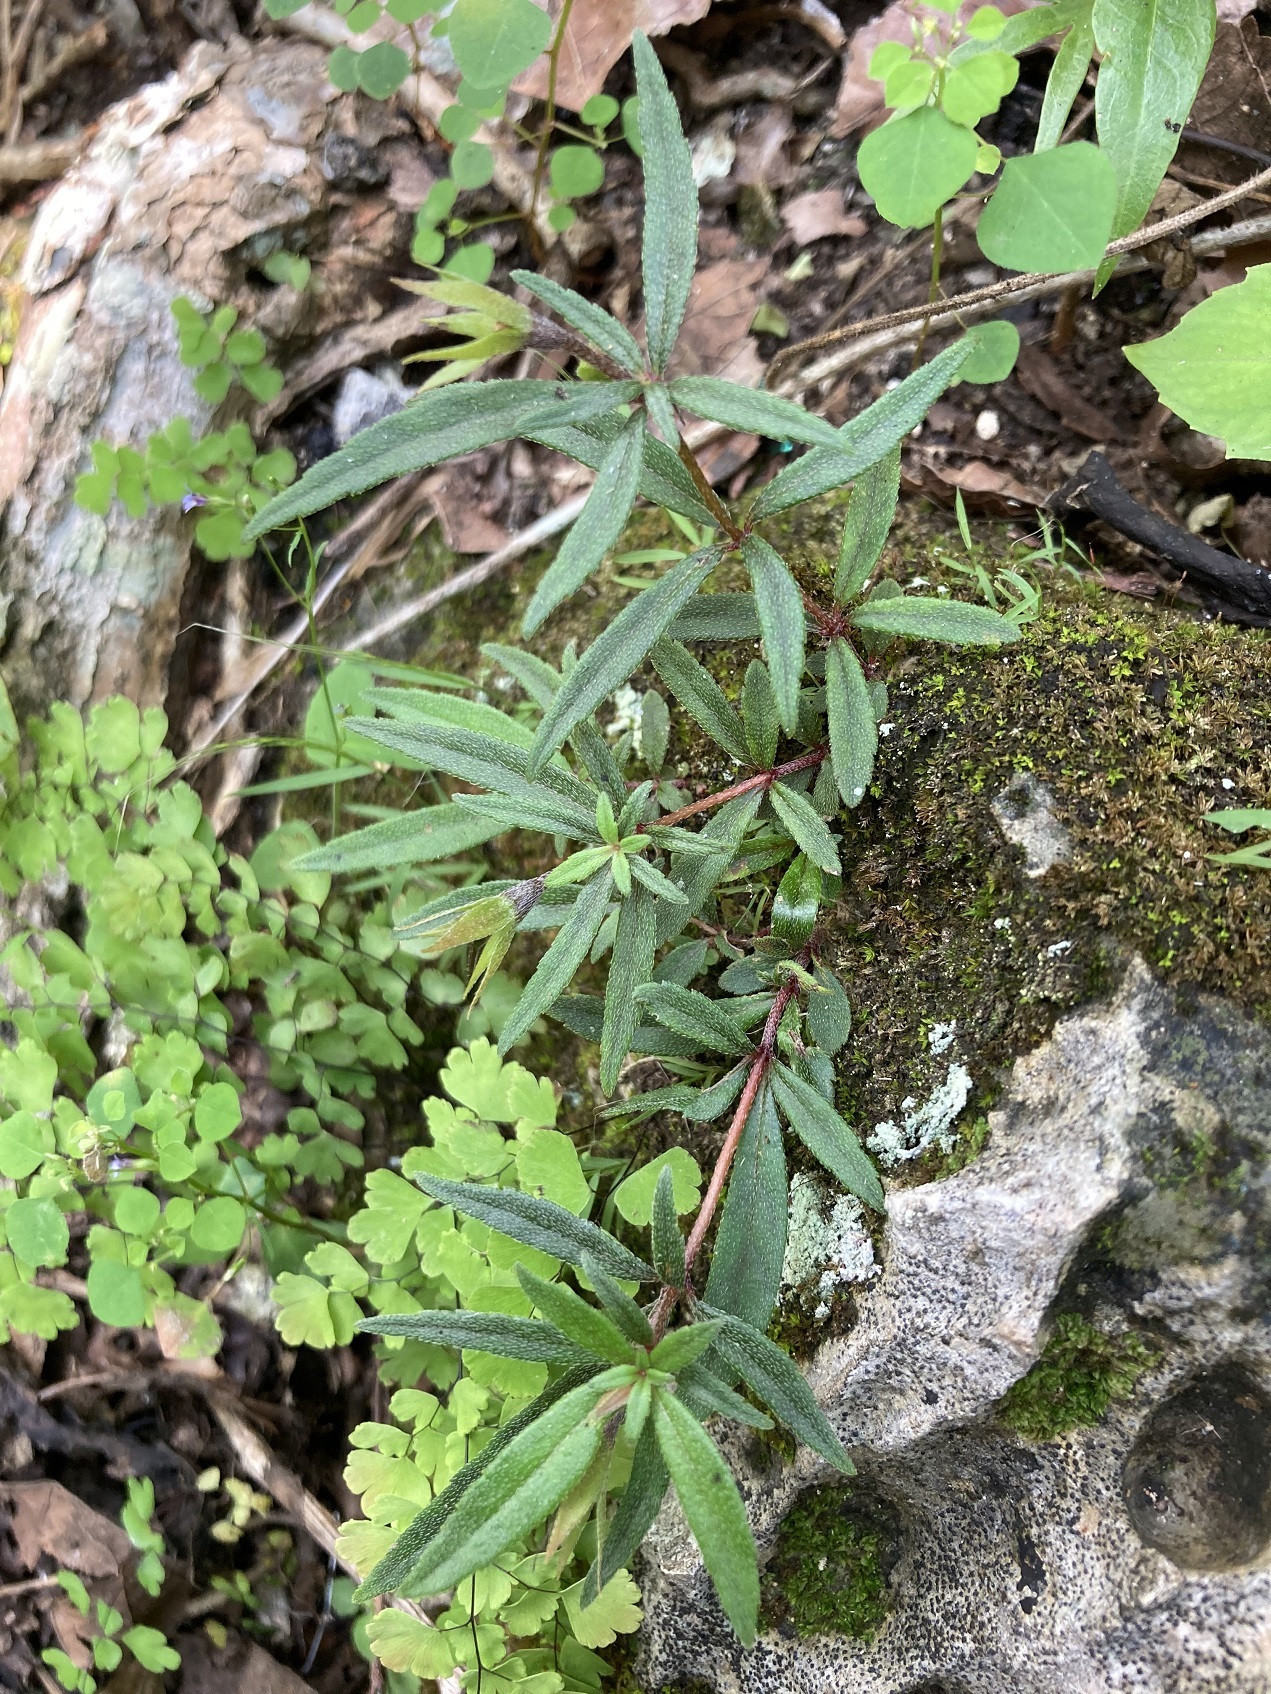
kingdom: Plantae
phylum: Tracheophyta
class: Magnoliopsida
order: Lamiales
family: Gesneriaceae
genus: Achimenes
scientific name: Achimenes cettoana
